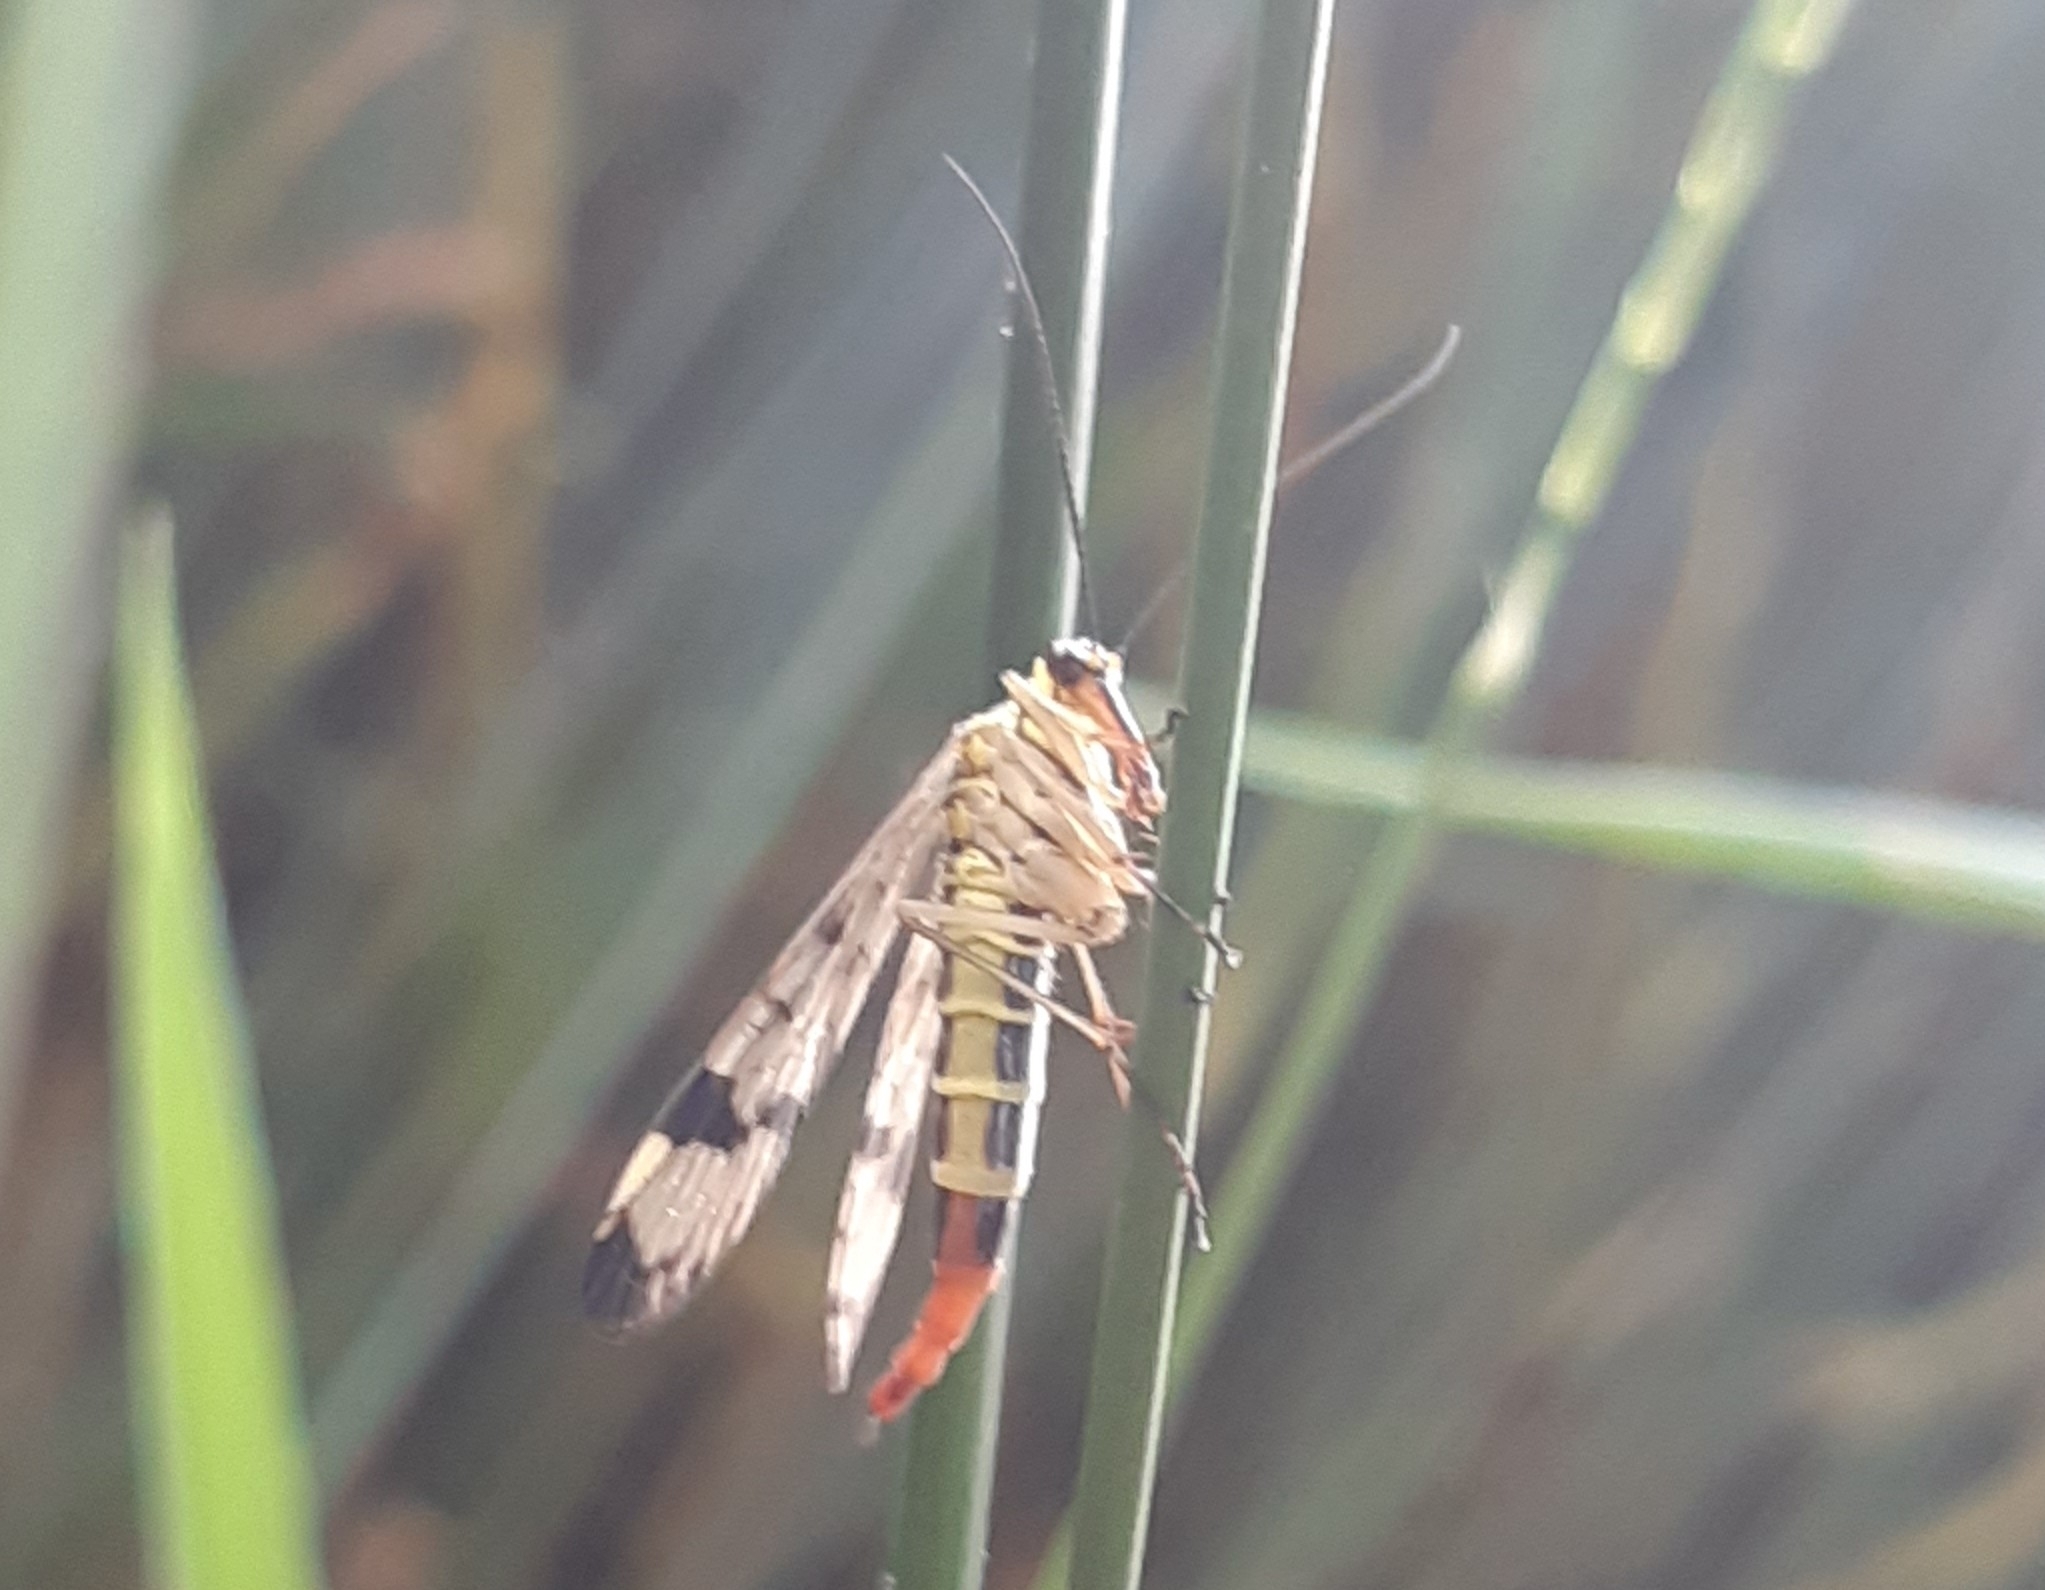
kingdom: Animalia
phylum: Arthropoda
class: Insecta
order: Mecoptera
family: Panorpidae
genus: Panorpa
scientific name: Panorpa communis
